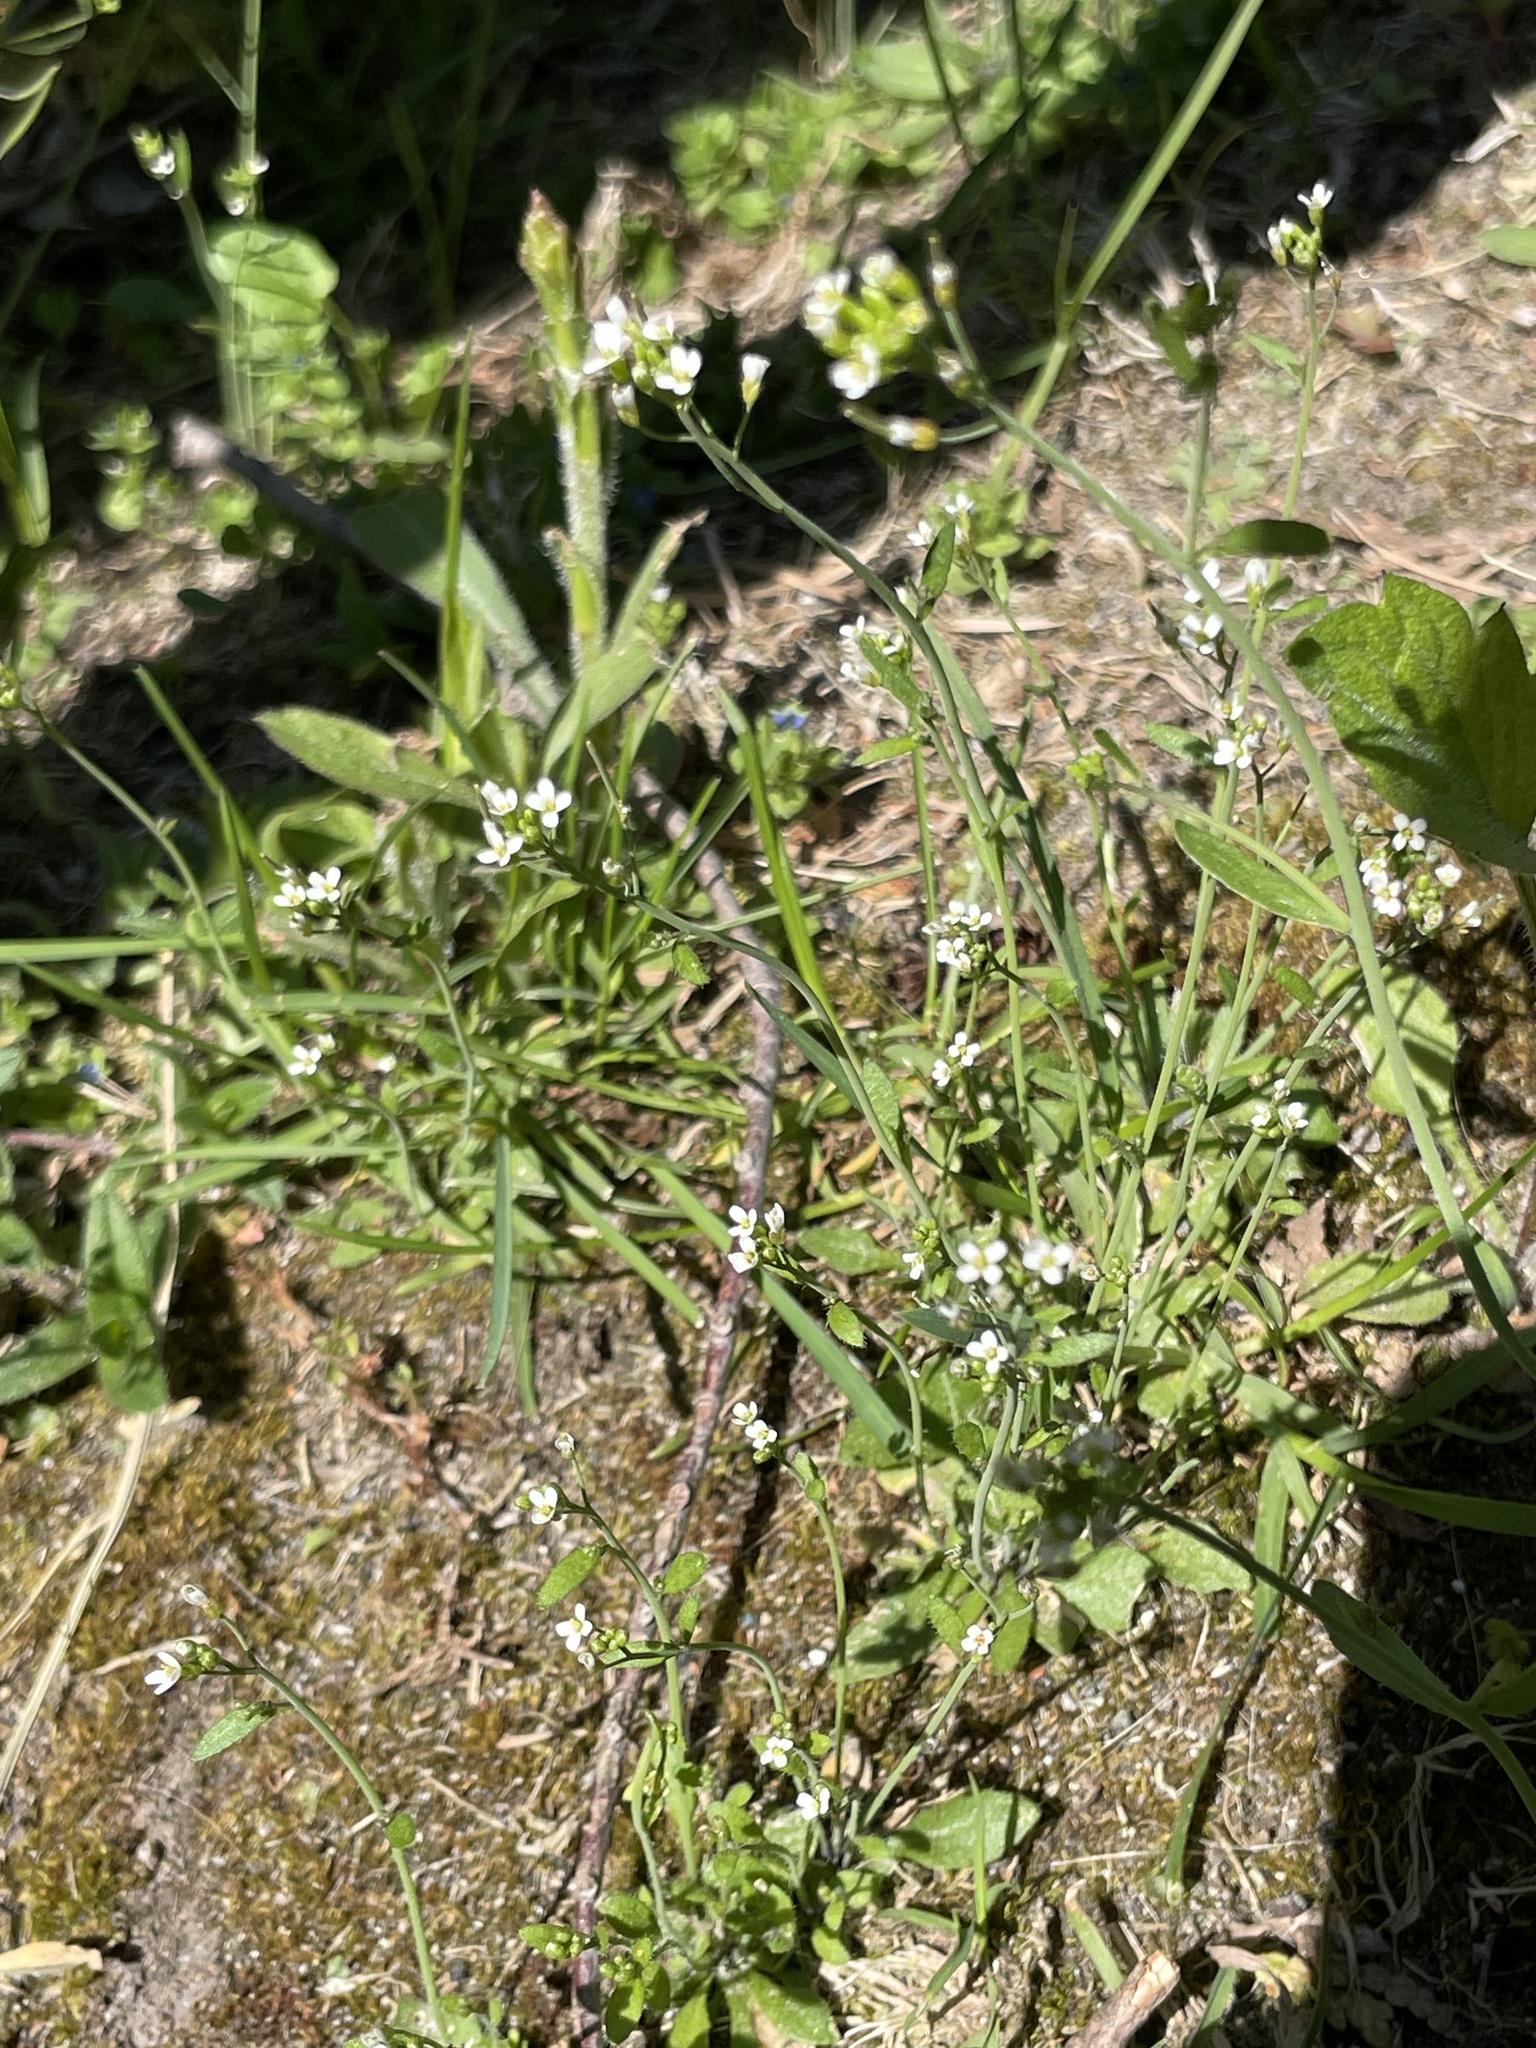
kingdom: Plantae
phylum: Tracheophyta
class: Magnoliopsida
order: Brassicales
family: Brassicaceae
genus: Arabidopsis
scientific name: Arabidopsis thaliana
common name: Thale cress
